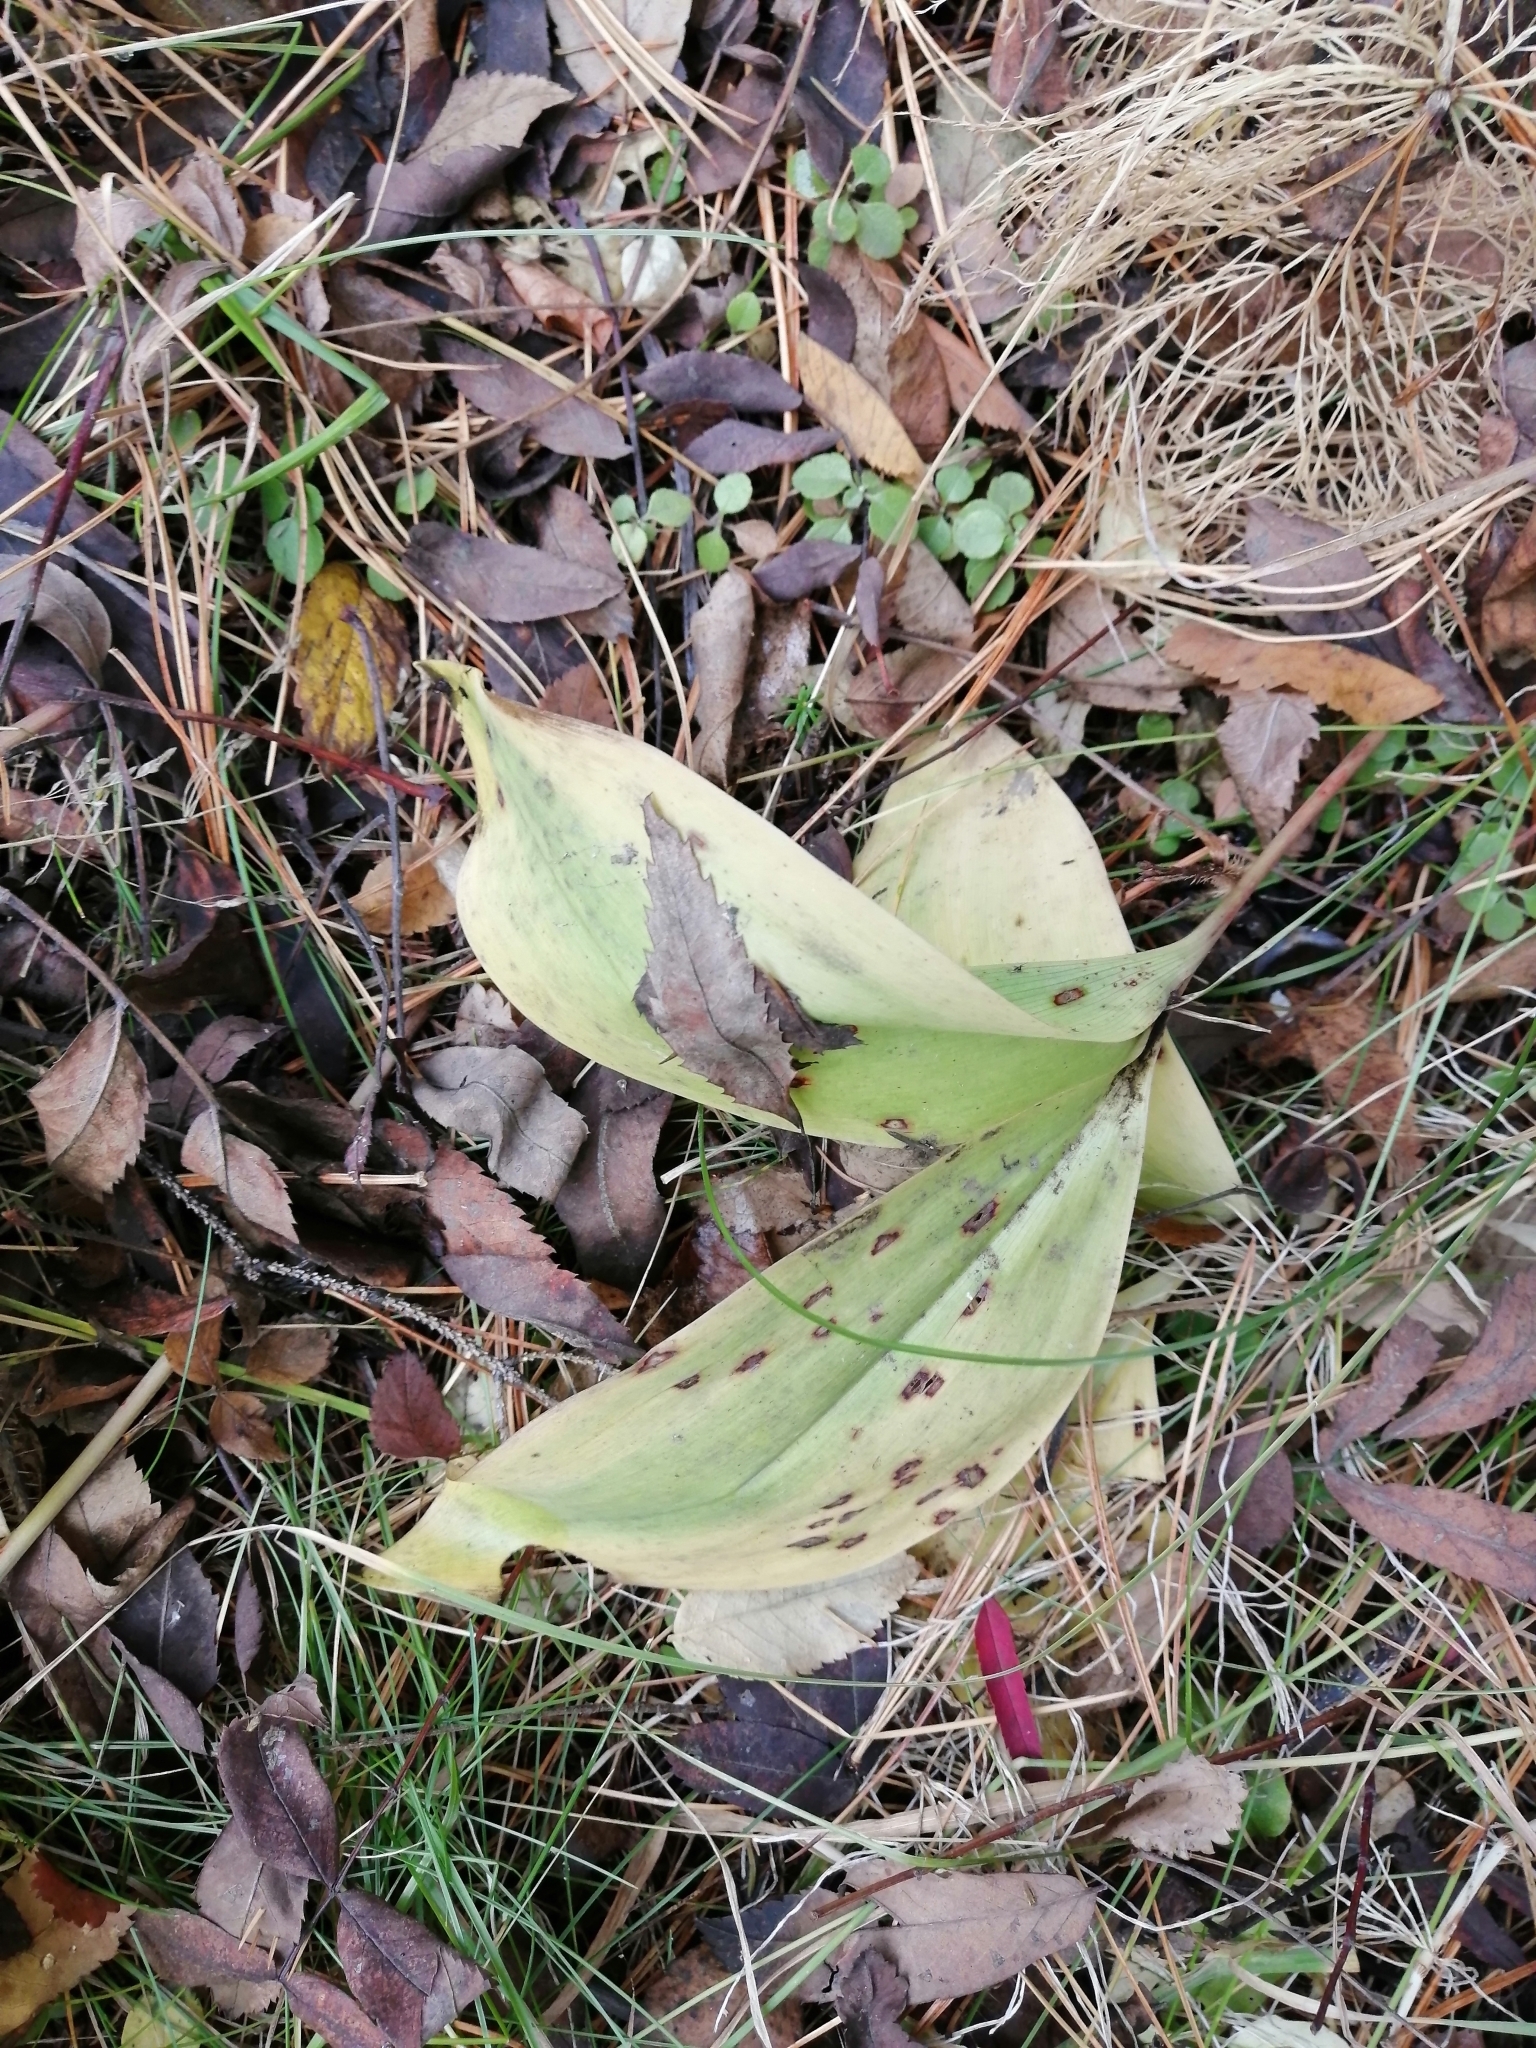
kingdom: Plantae
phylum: Tracheophyta
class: Liliopsida
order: Asparagales
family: Asparagaceae
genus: Convallaria
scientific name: Convallaria majalis
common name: Lily-of-the-valley
